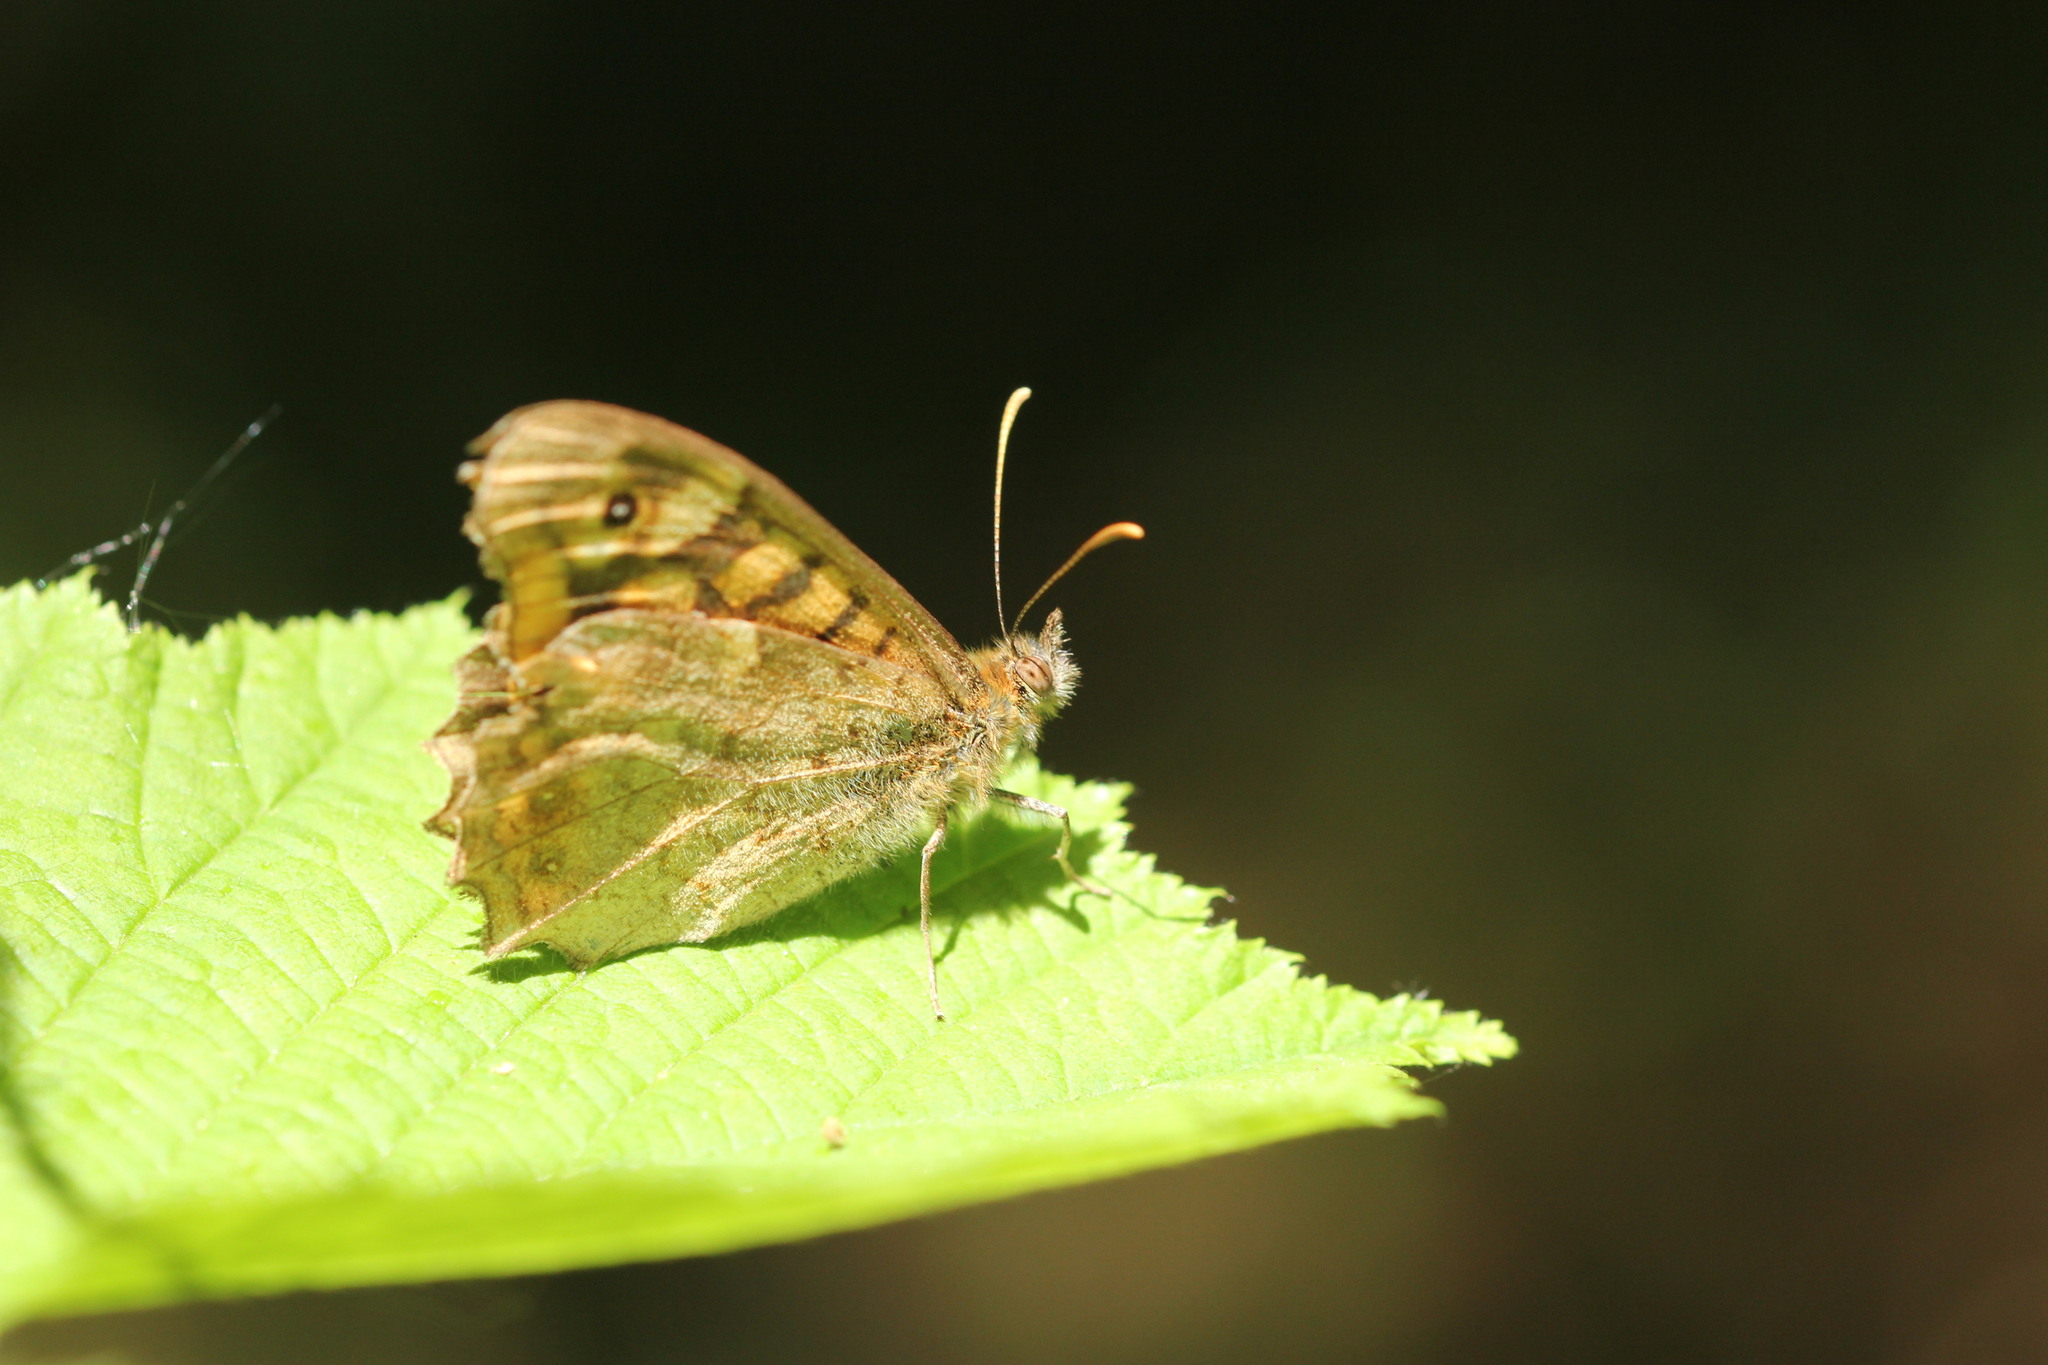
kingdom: Animalia
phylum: Arthropoda
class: Insecta
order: Lepidoptera
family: Nymphalidae
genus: Pararge
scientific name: Pararge aegeria
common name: Speckled wood
